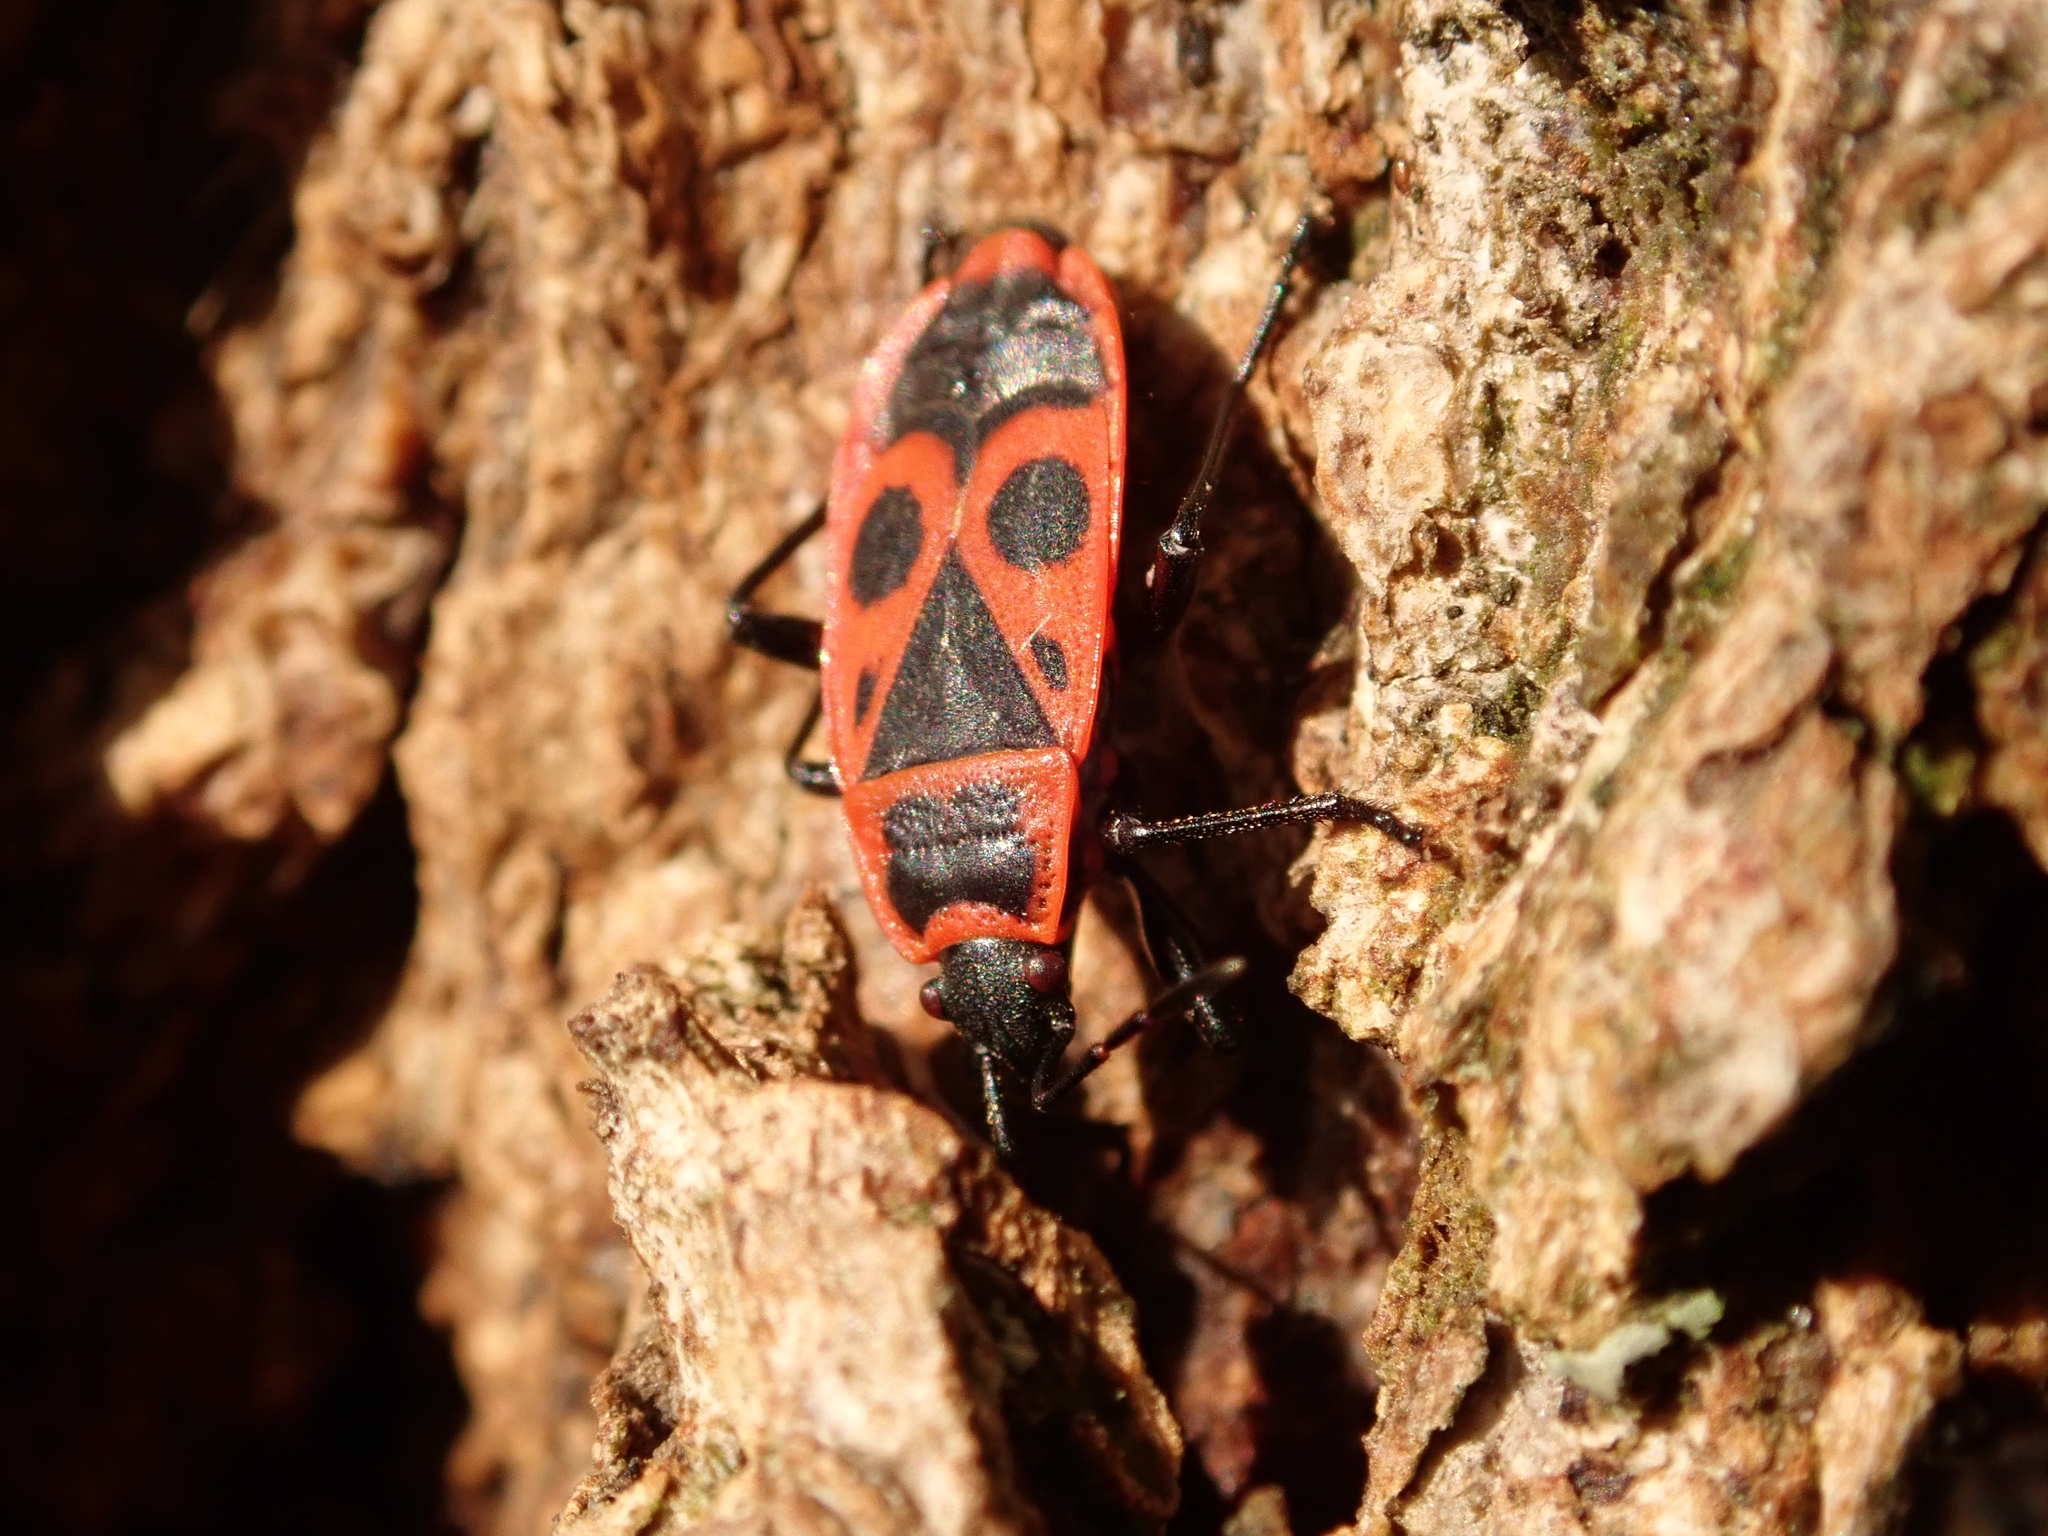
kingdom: Animalia
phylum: Arthropoda
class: Insecta
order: Hemiptera
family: Pyrrhocoridae
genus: Pyrrhocoris
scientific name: Pyrrhocoris apterus
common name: Firebug
